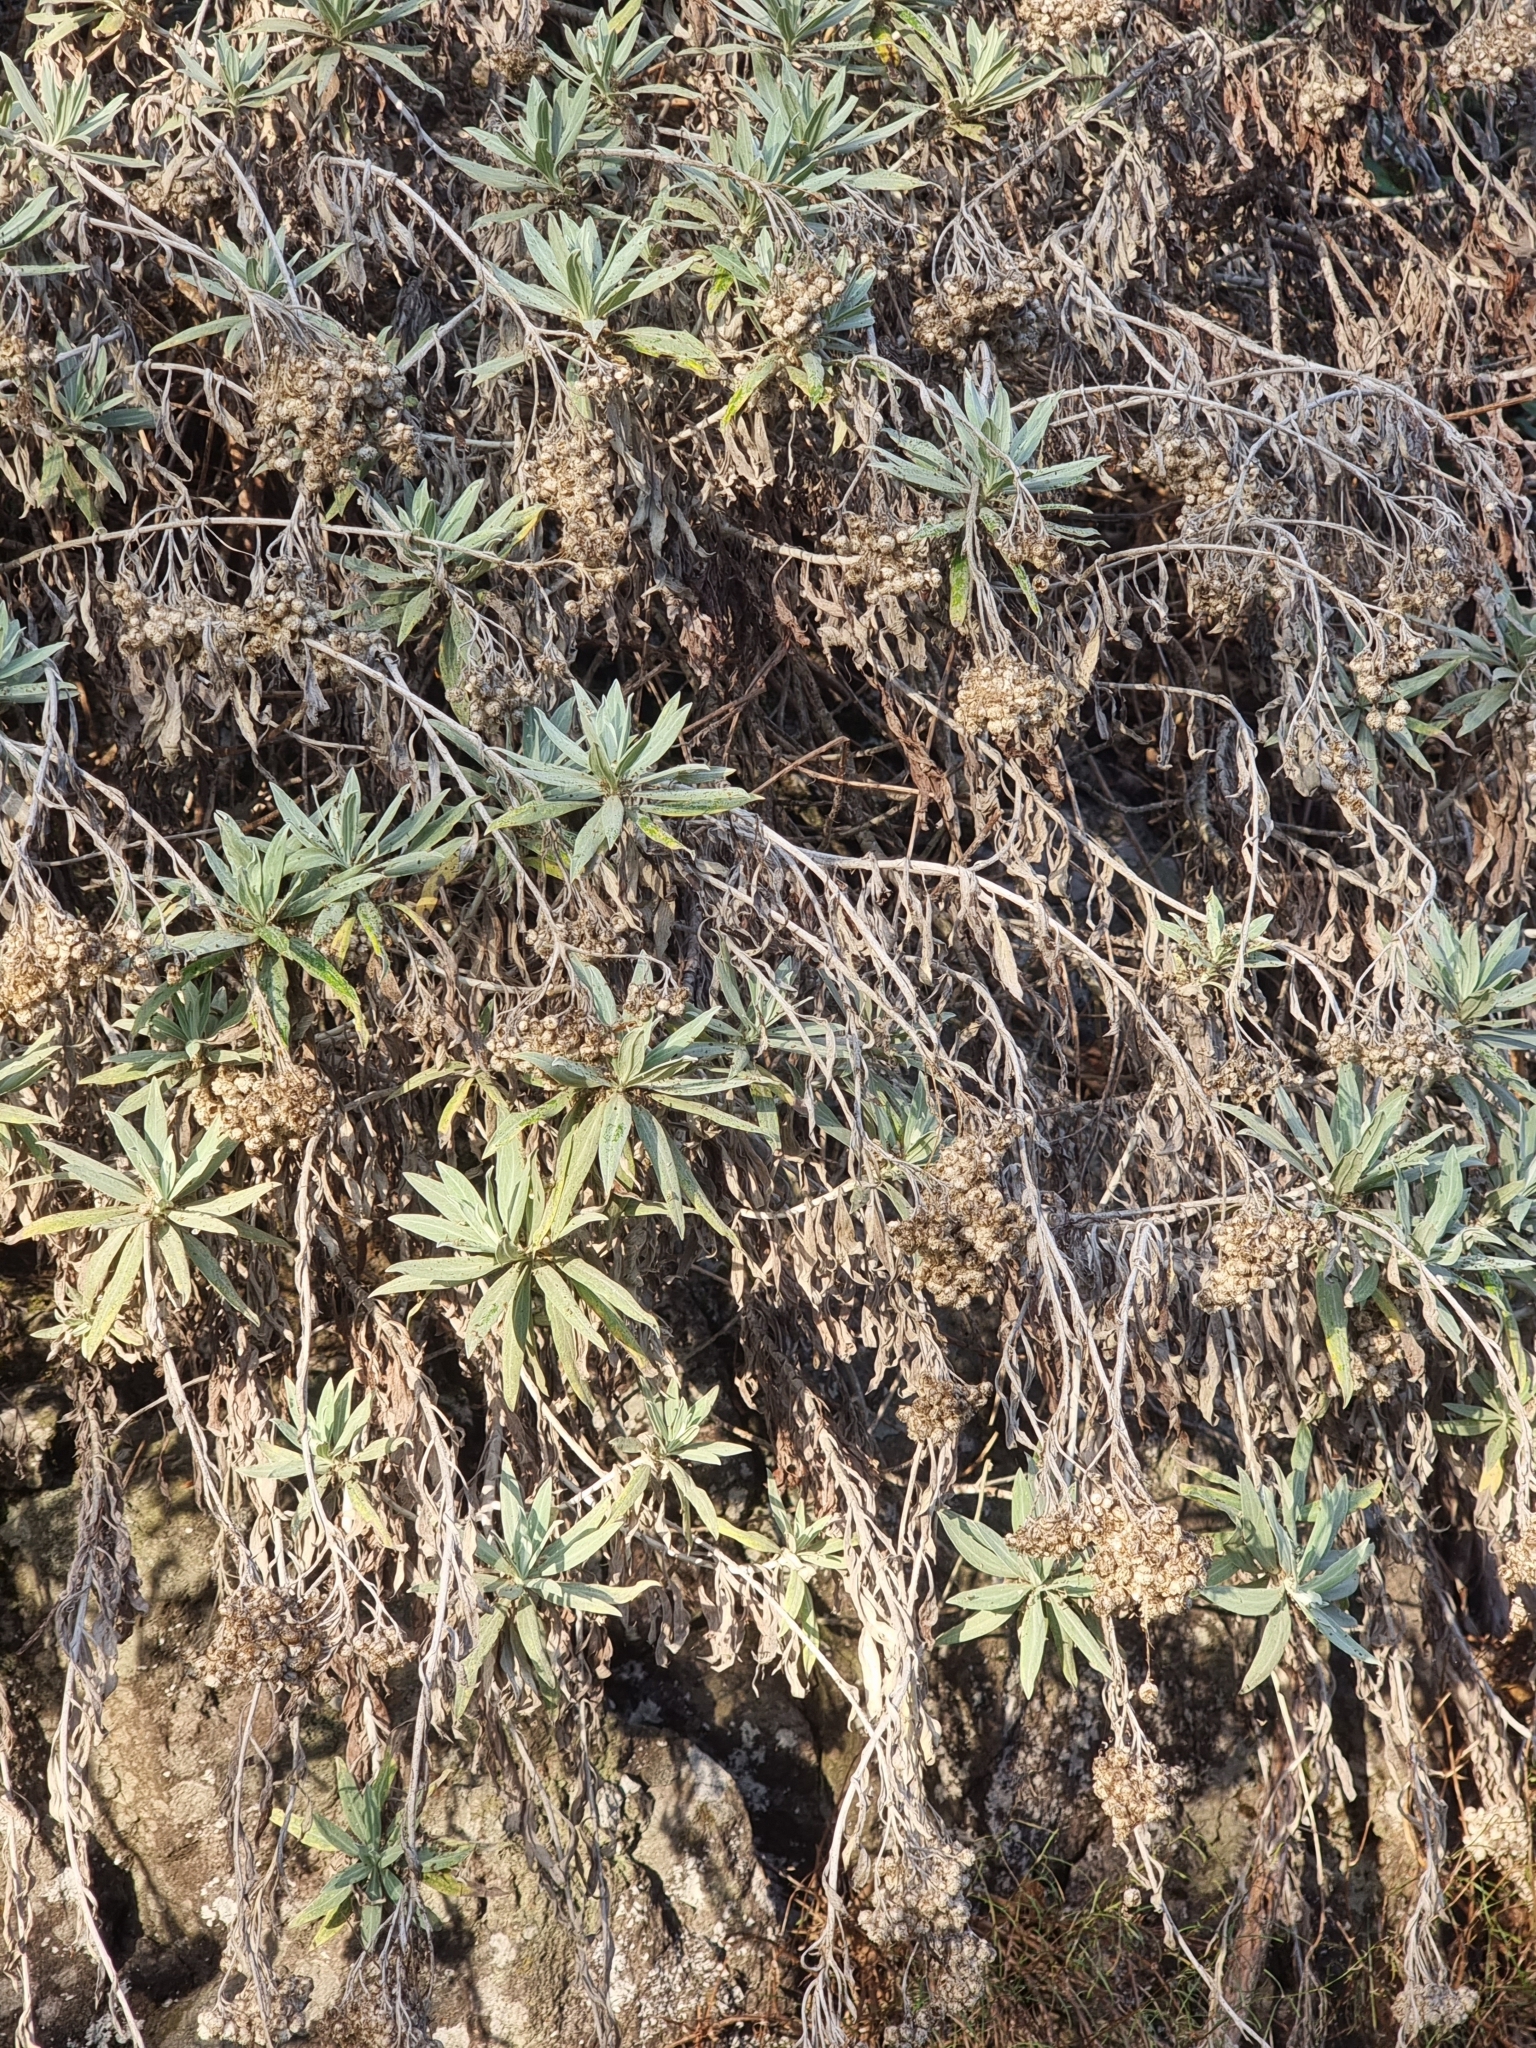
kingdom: Plantae
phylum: Tracheophyta
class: Magnoliopsida
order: Asterales
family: Asteraceae
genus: Helichrysum
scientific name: Helichrysum melaleucum
